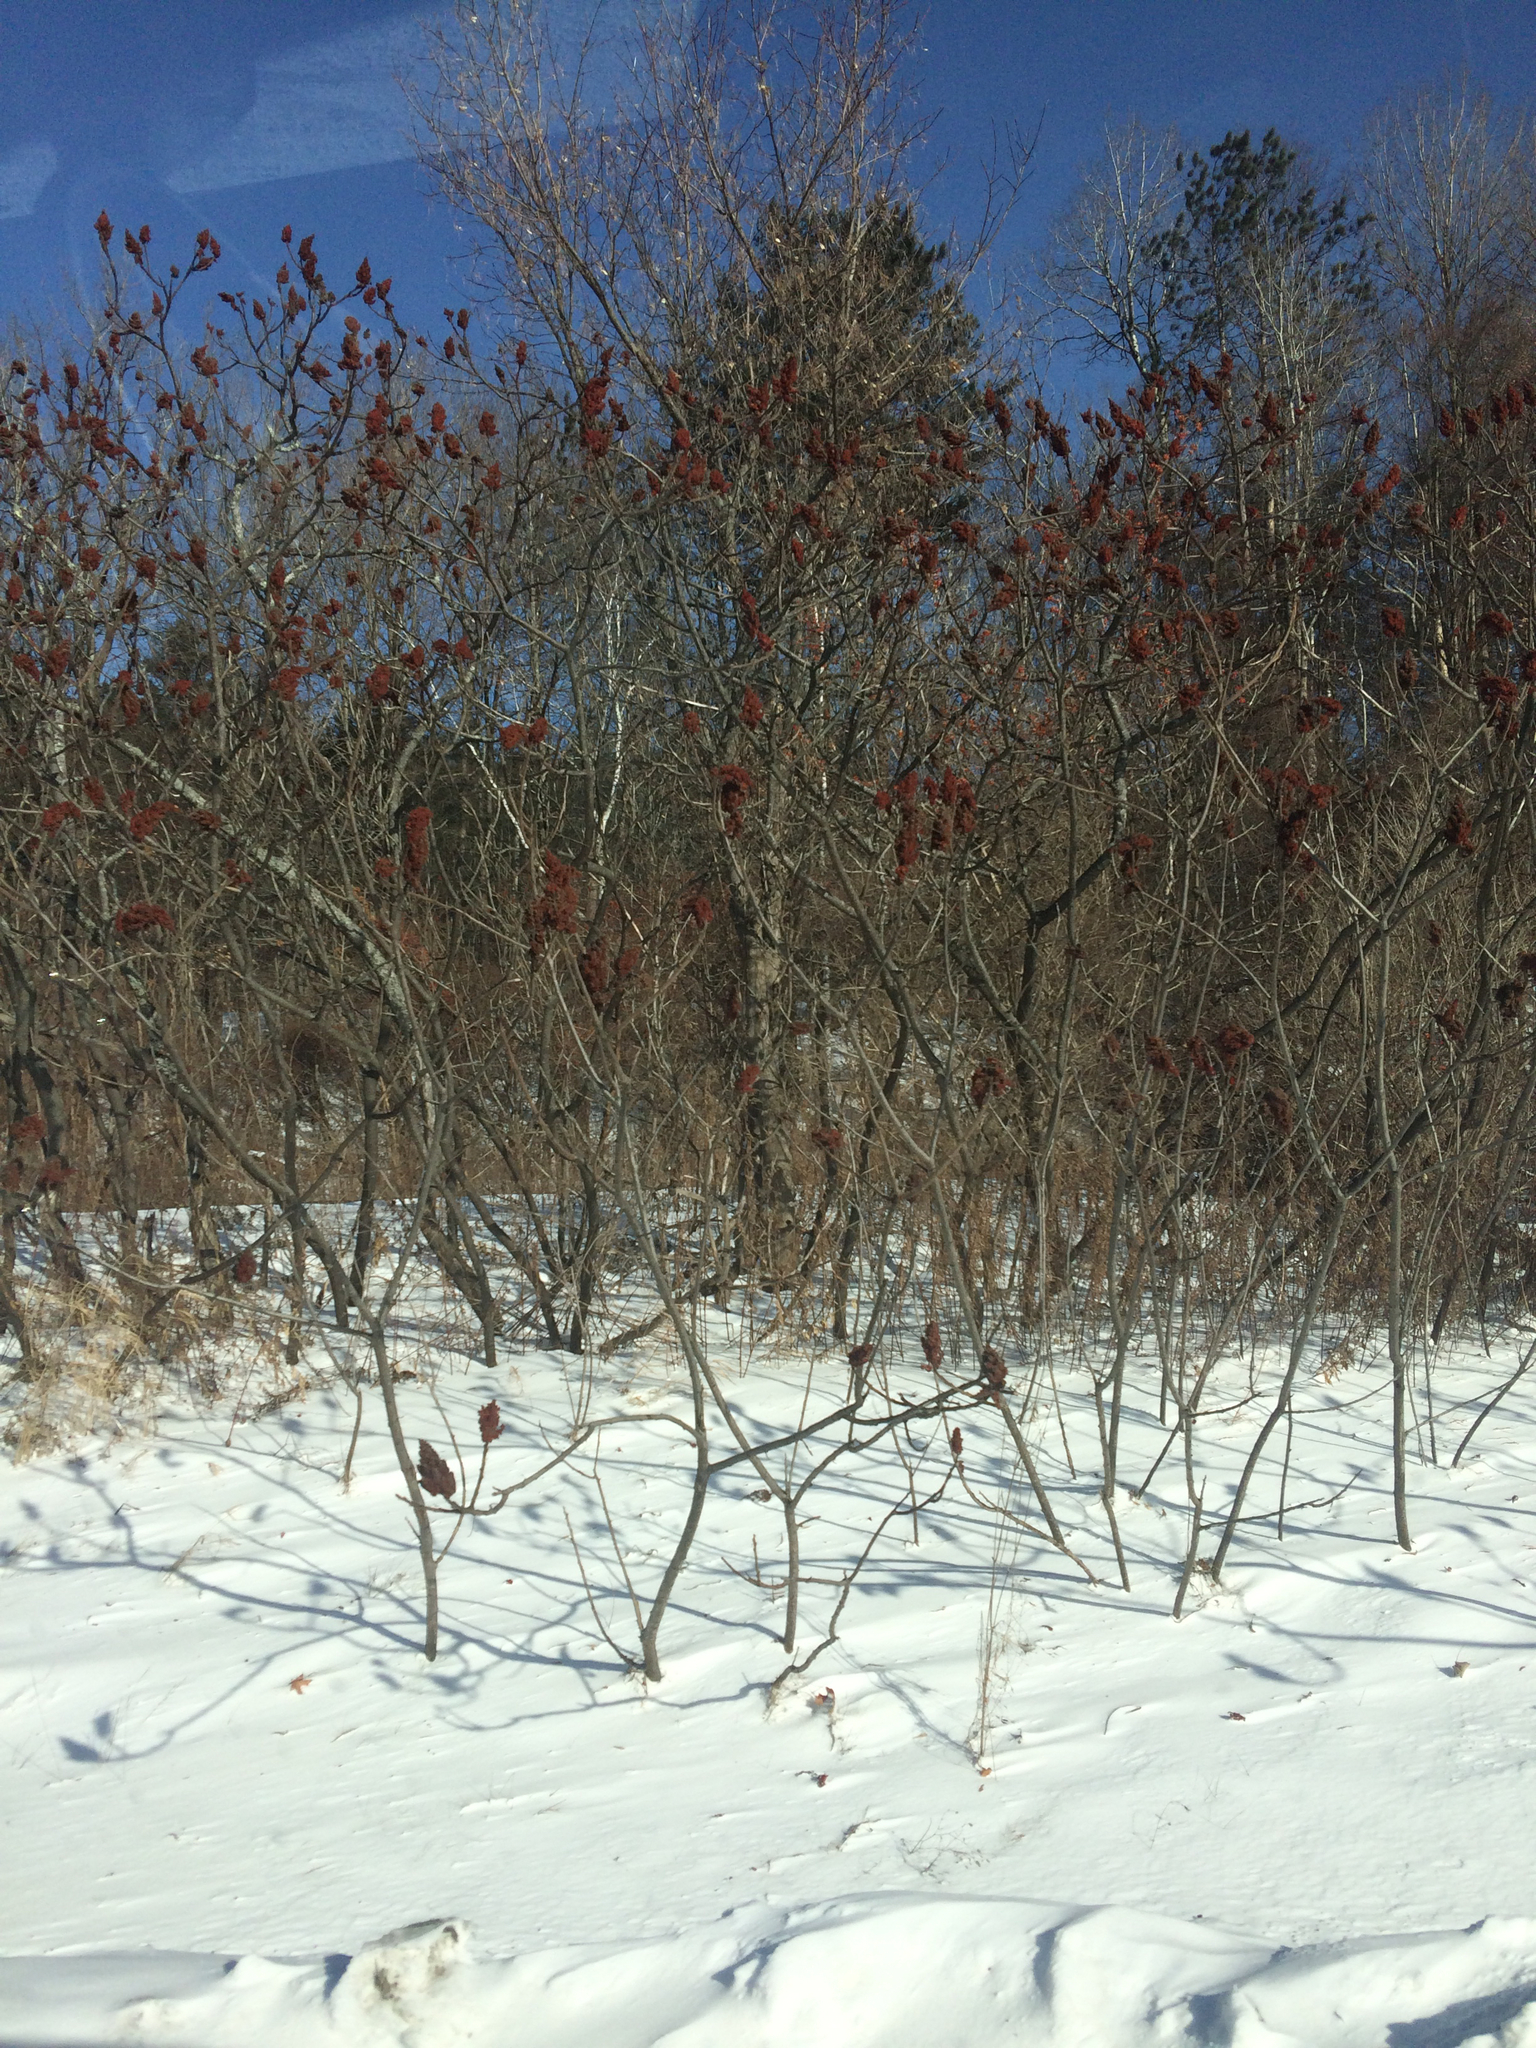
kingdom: Plantae
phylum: Tracheophyta
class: Magnoliopsida
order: Sapindales
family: Anacardiaceae
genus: Rhus
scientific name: Rhus typhina
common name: Staghorn sumac
